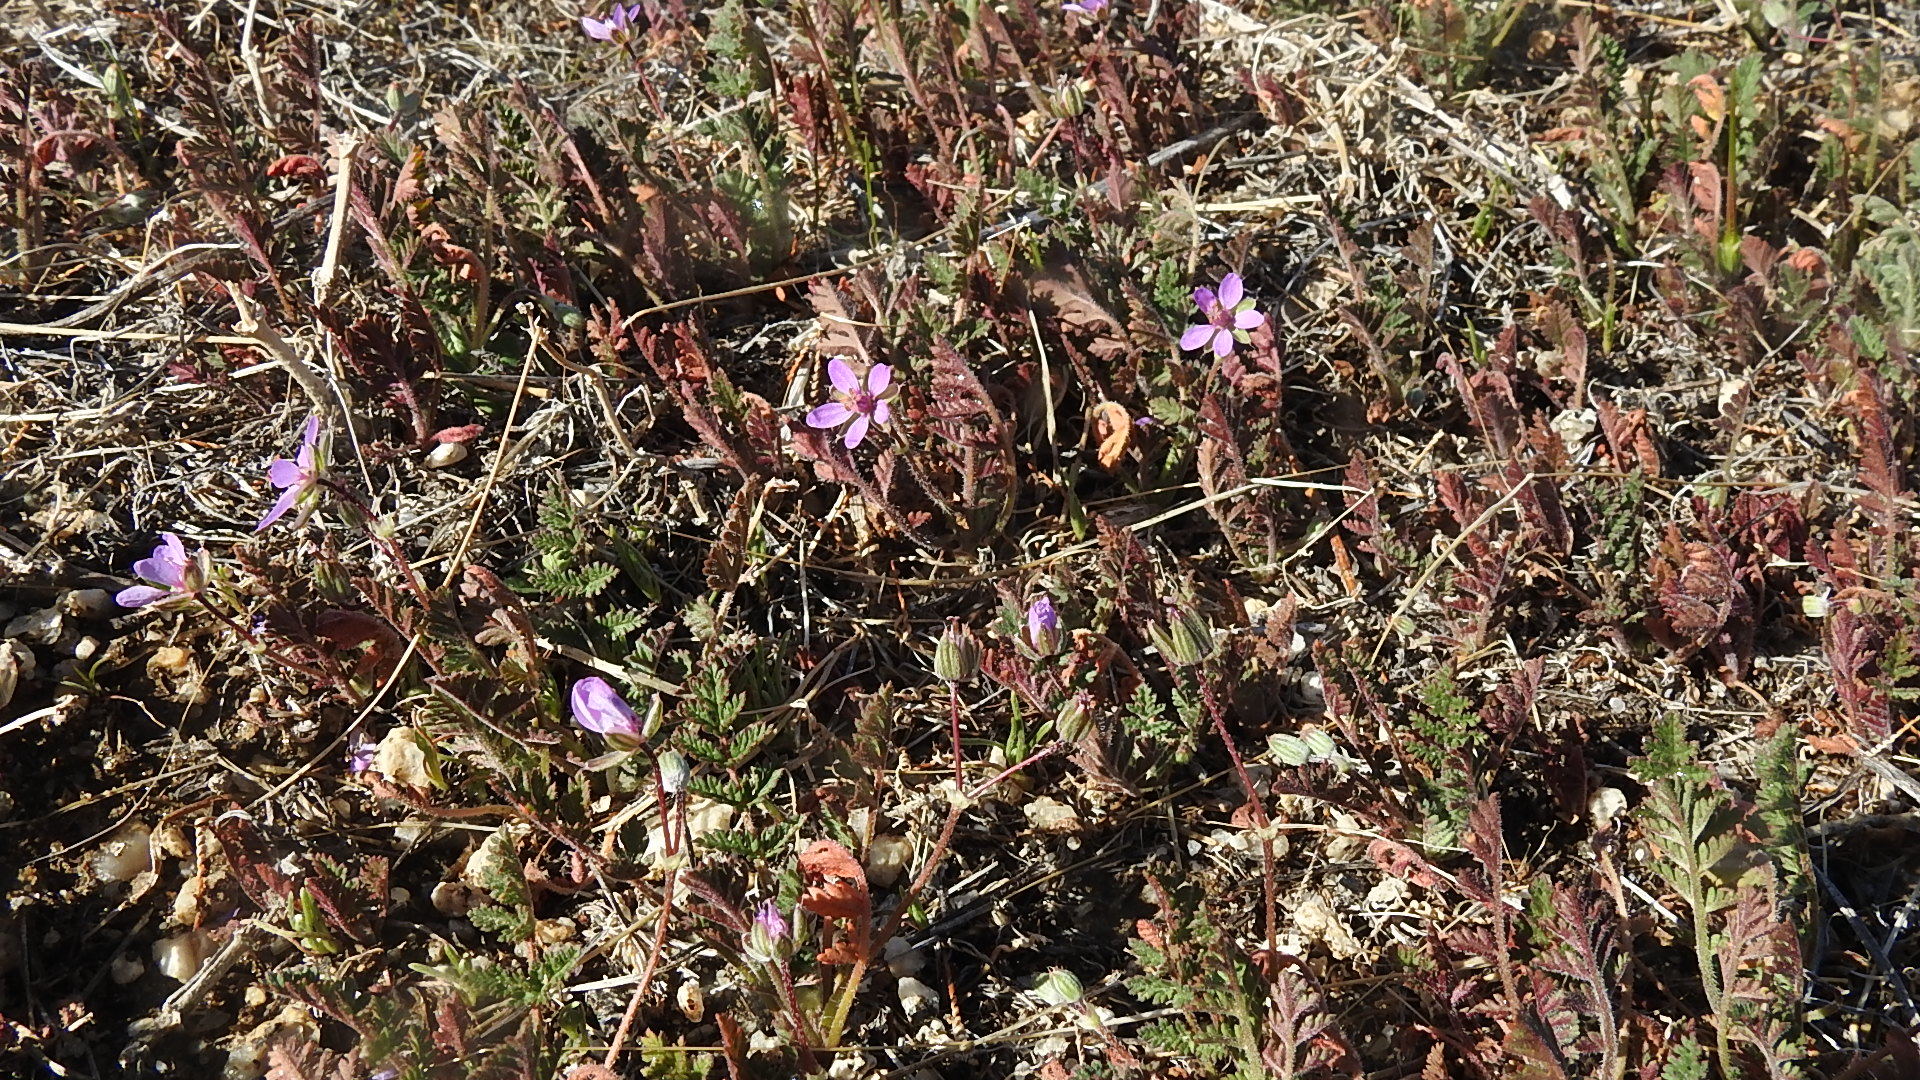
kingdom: Plantae
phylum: Tracheophyta
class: Magnoliopsida
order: Geraniales
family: Geraniaceae
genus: Erodium
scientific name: Erodium cicutarium
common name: Common stork's-bill
